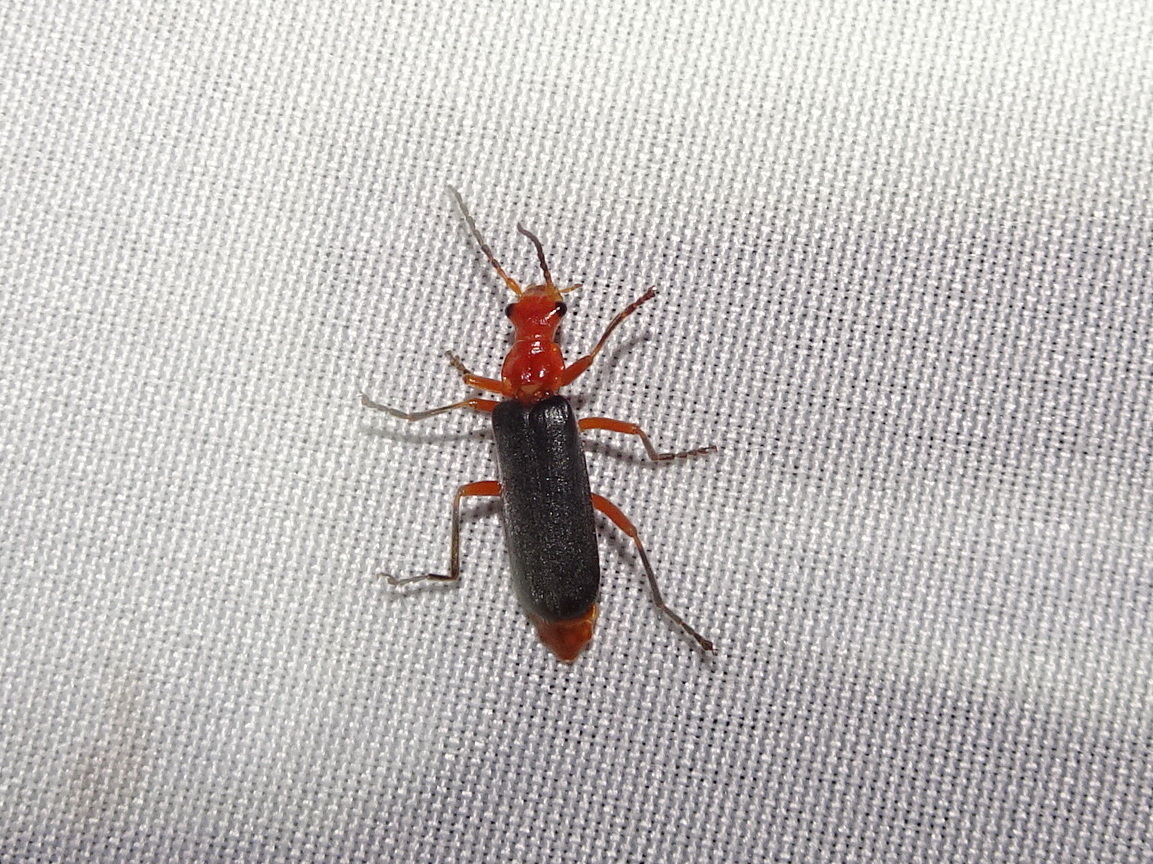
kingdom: Animalia
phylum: Arthropoda
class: Insecta
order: Coleoptera
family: Cantharidae
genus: Podabrus
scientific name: Podabrus tomentosus
